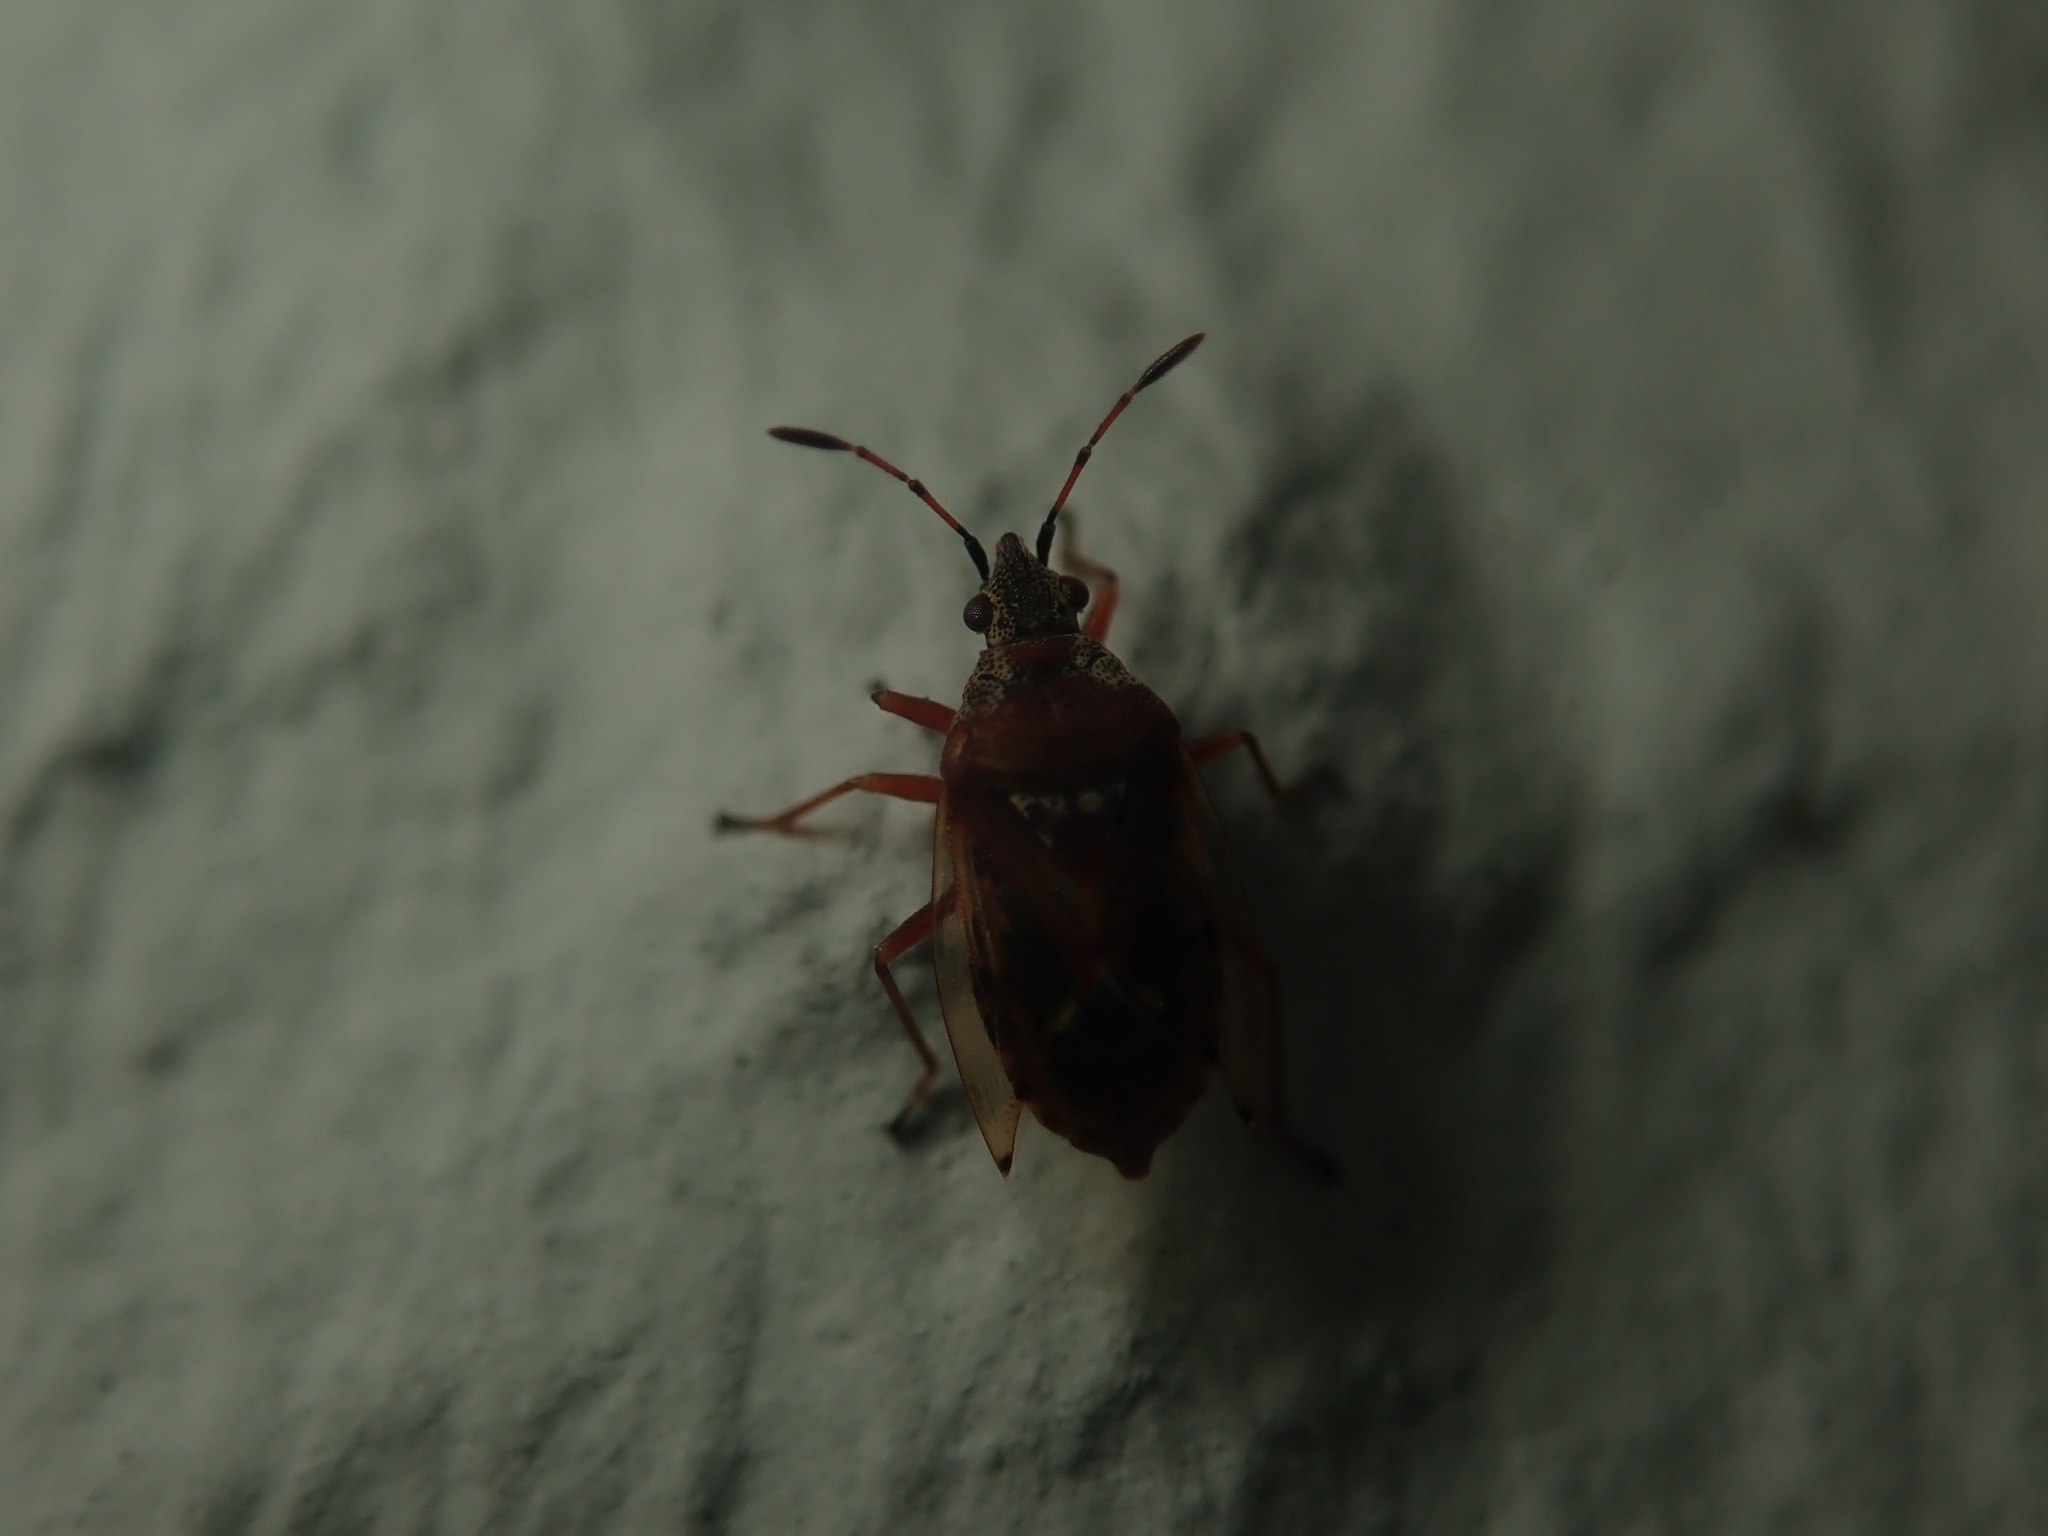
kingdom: Animalia
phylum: Arthropoda
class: Insecta
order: Hemiptera
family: Lygaeidae
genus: Kleidocerys
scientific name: Kleidocerys resedae
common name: Birch catkin bug
